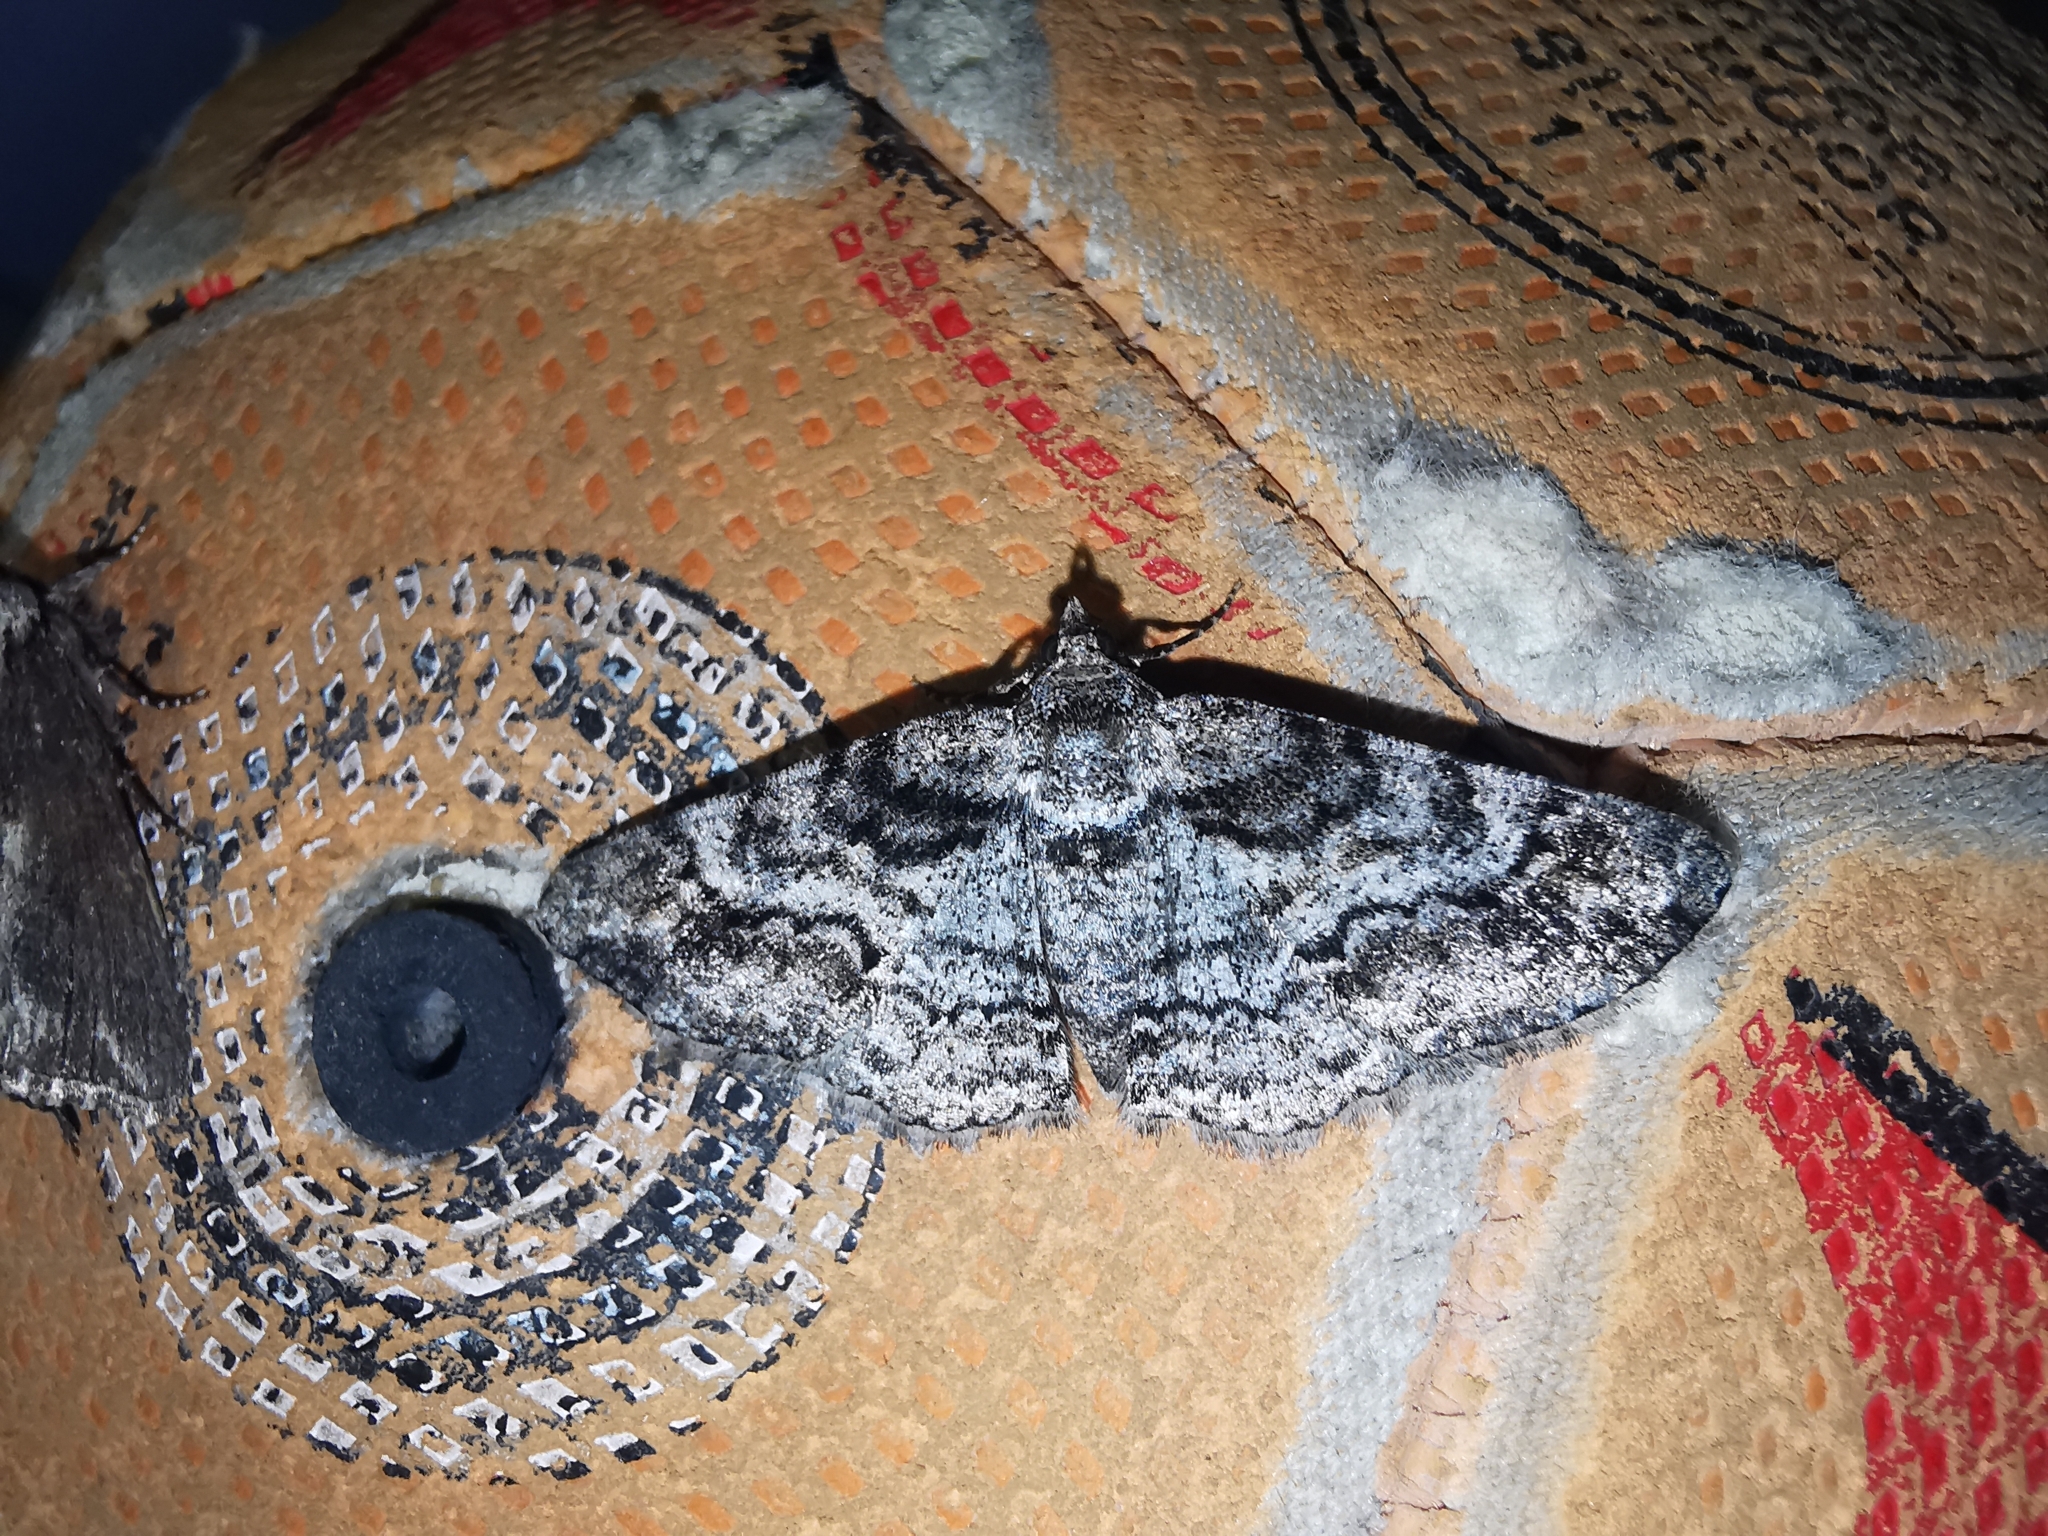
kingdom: Animalia
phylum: Arthropoda
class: Insecta
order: Lepidoptera
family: Geometridae
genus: Cleora
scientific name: Cleora cinctaria
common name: Ringed carpet
